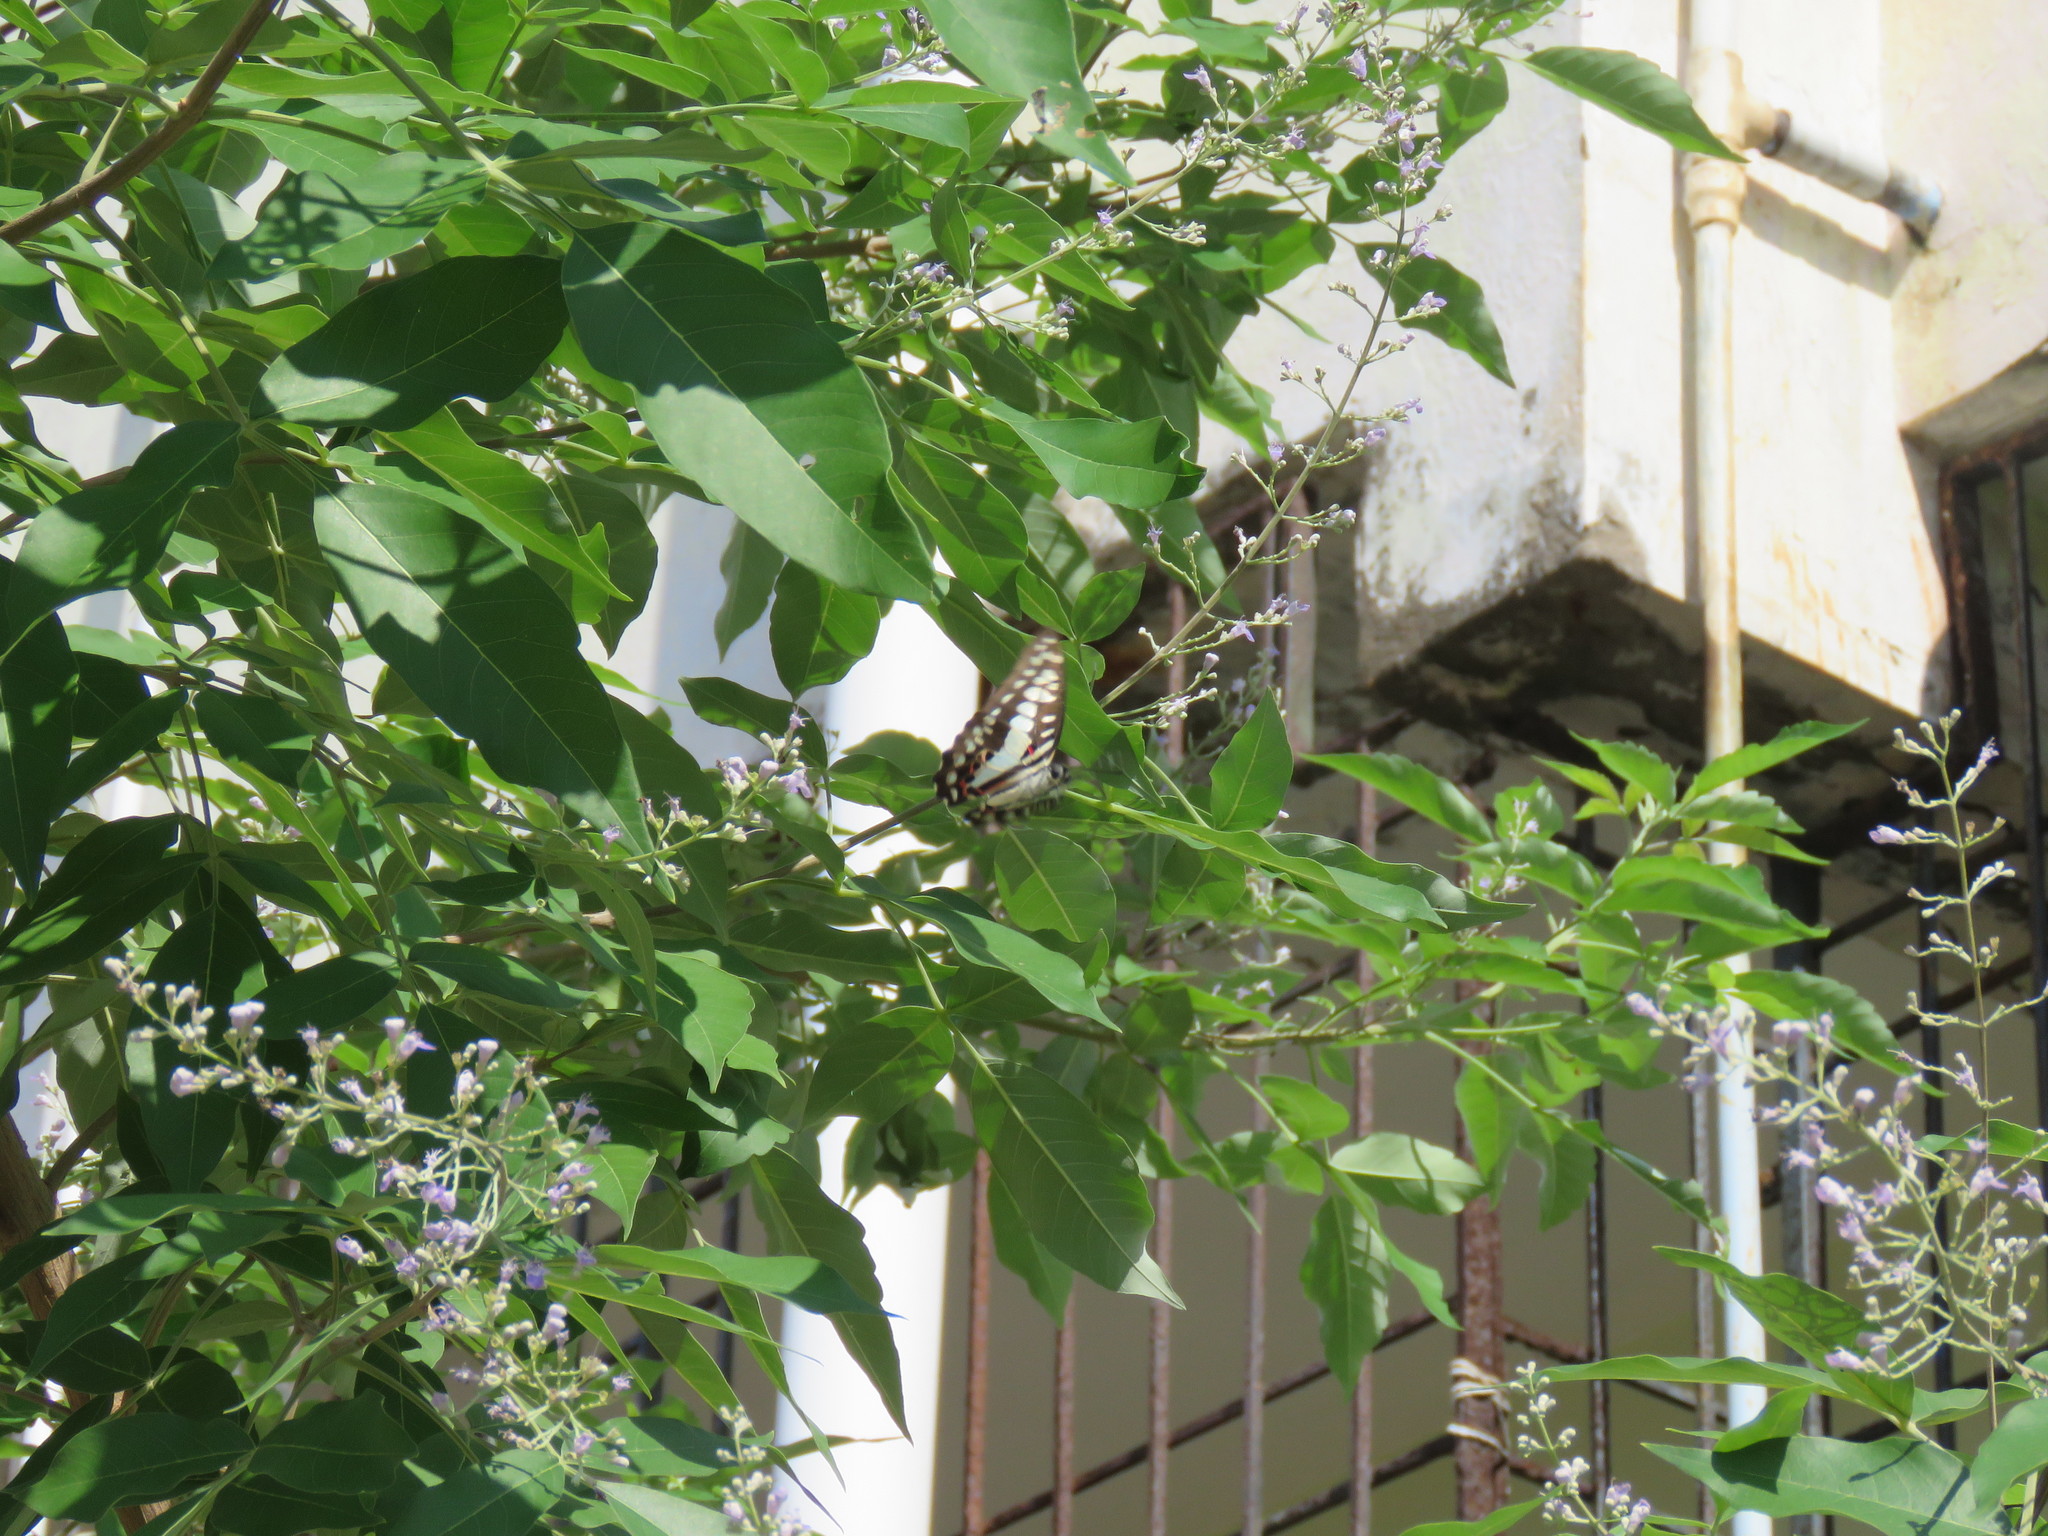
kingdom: Animalia
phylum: Arthropoda
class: Insecta
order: Lepidoptera
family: Papilionidae
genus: Graphium
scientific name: Graphium doson
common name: Common jay
